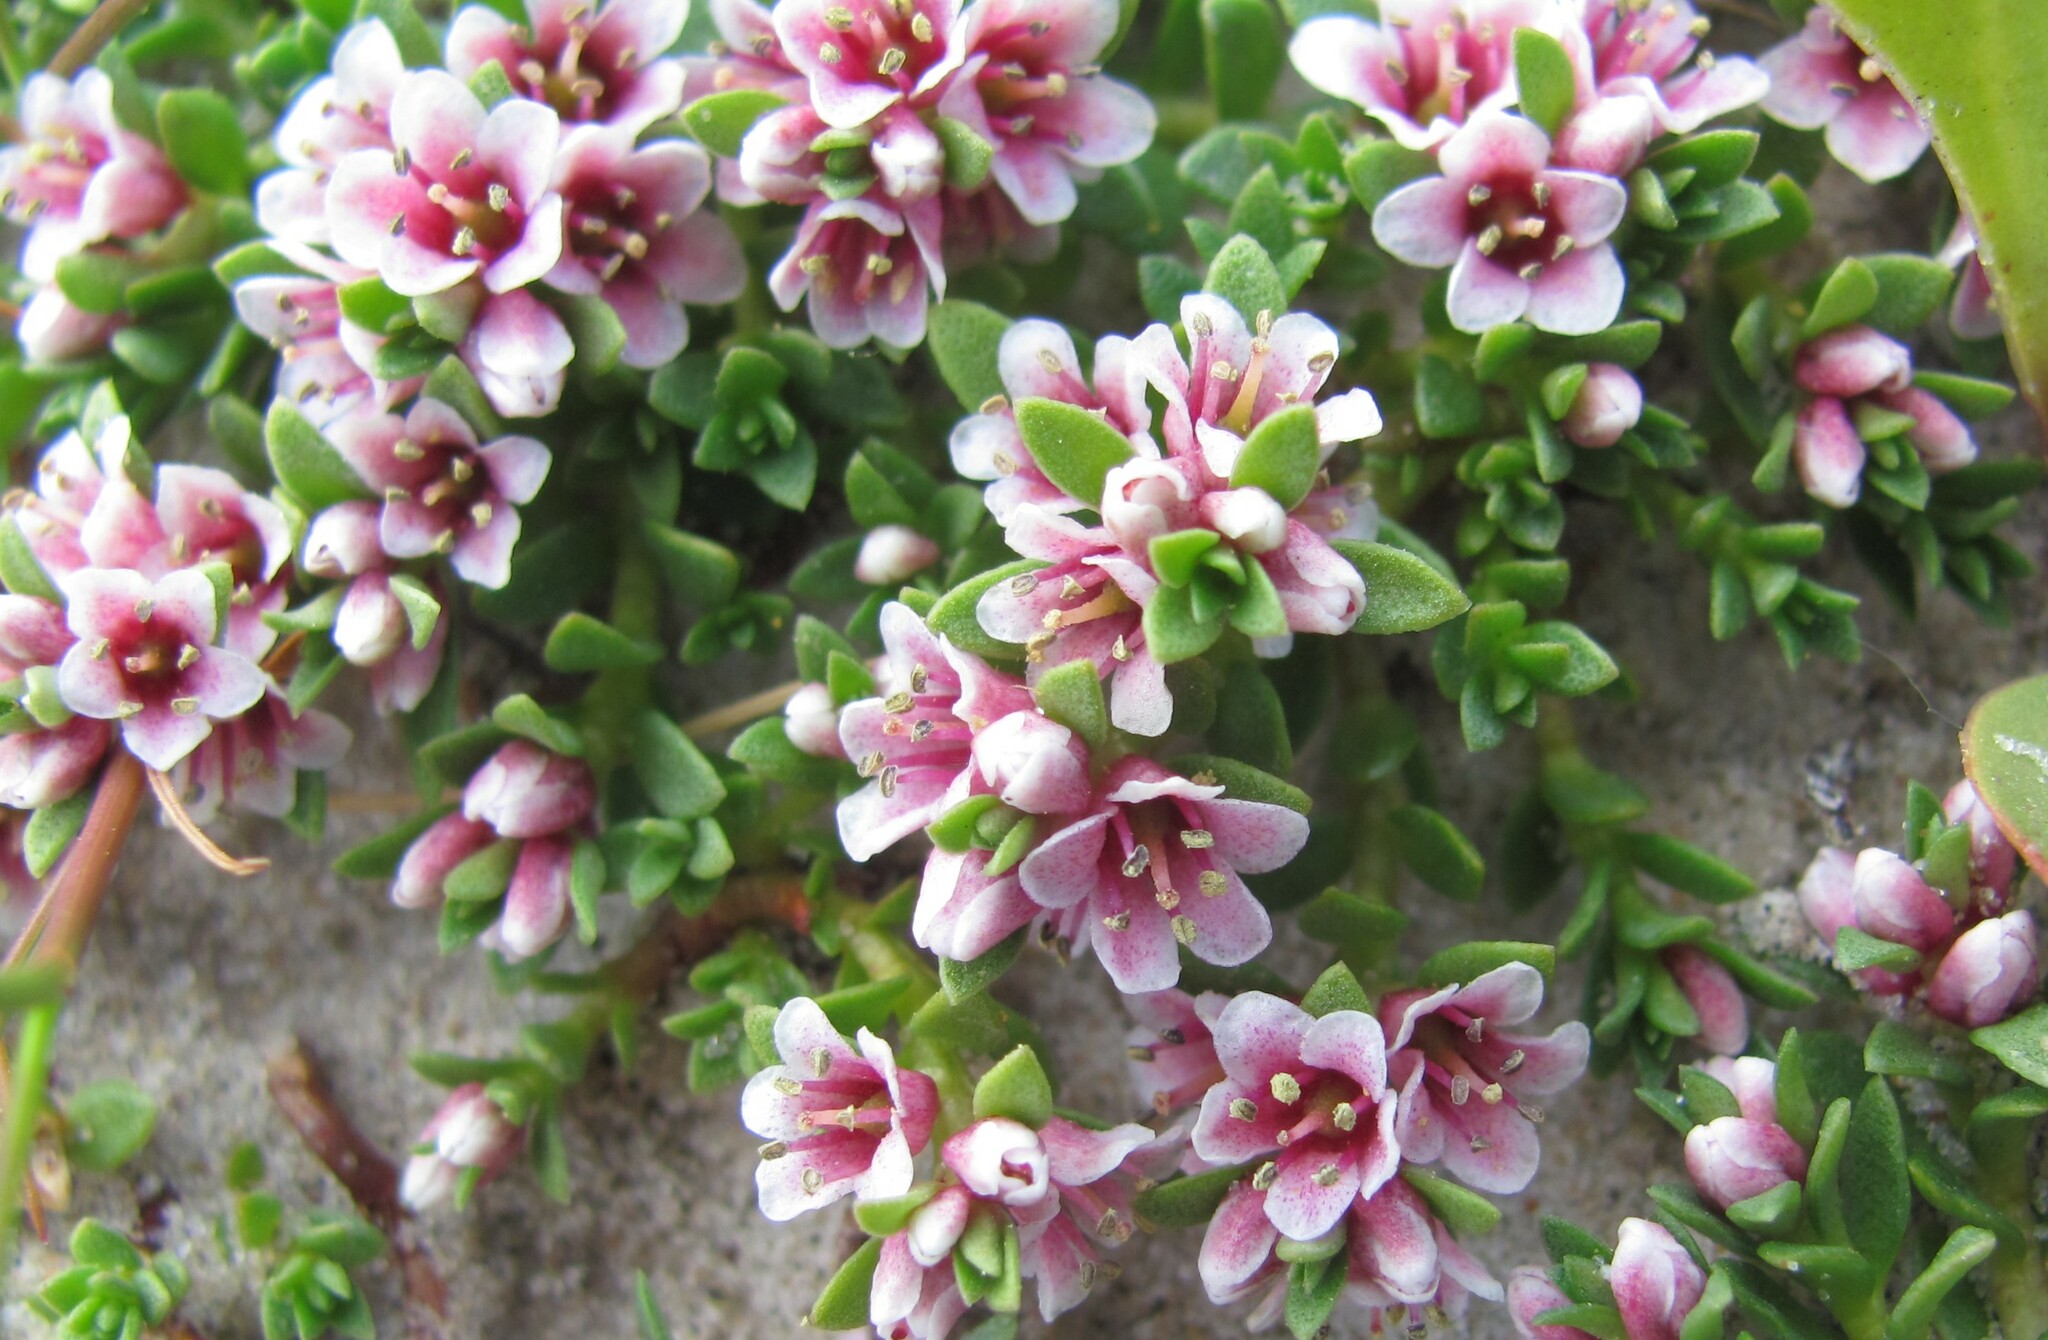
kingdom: Plantae
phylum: Tracheophyta
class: Magnoliopsida
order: Ericales
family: Primulaceae
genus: Lysimachia
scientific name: Lysimachia maritima
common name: Sea milkwort
